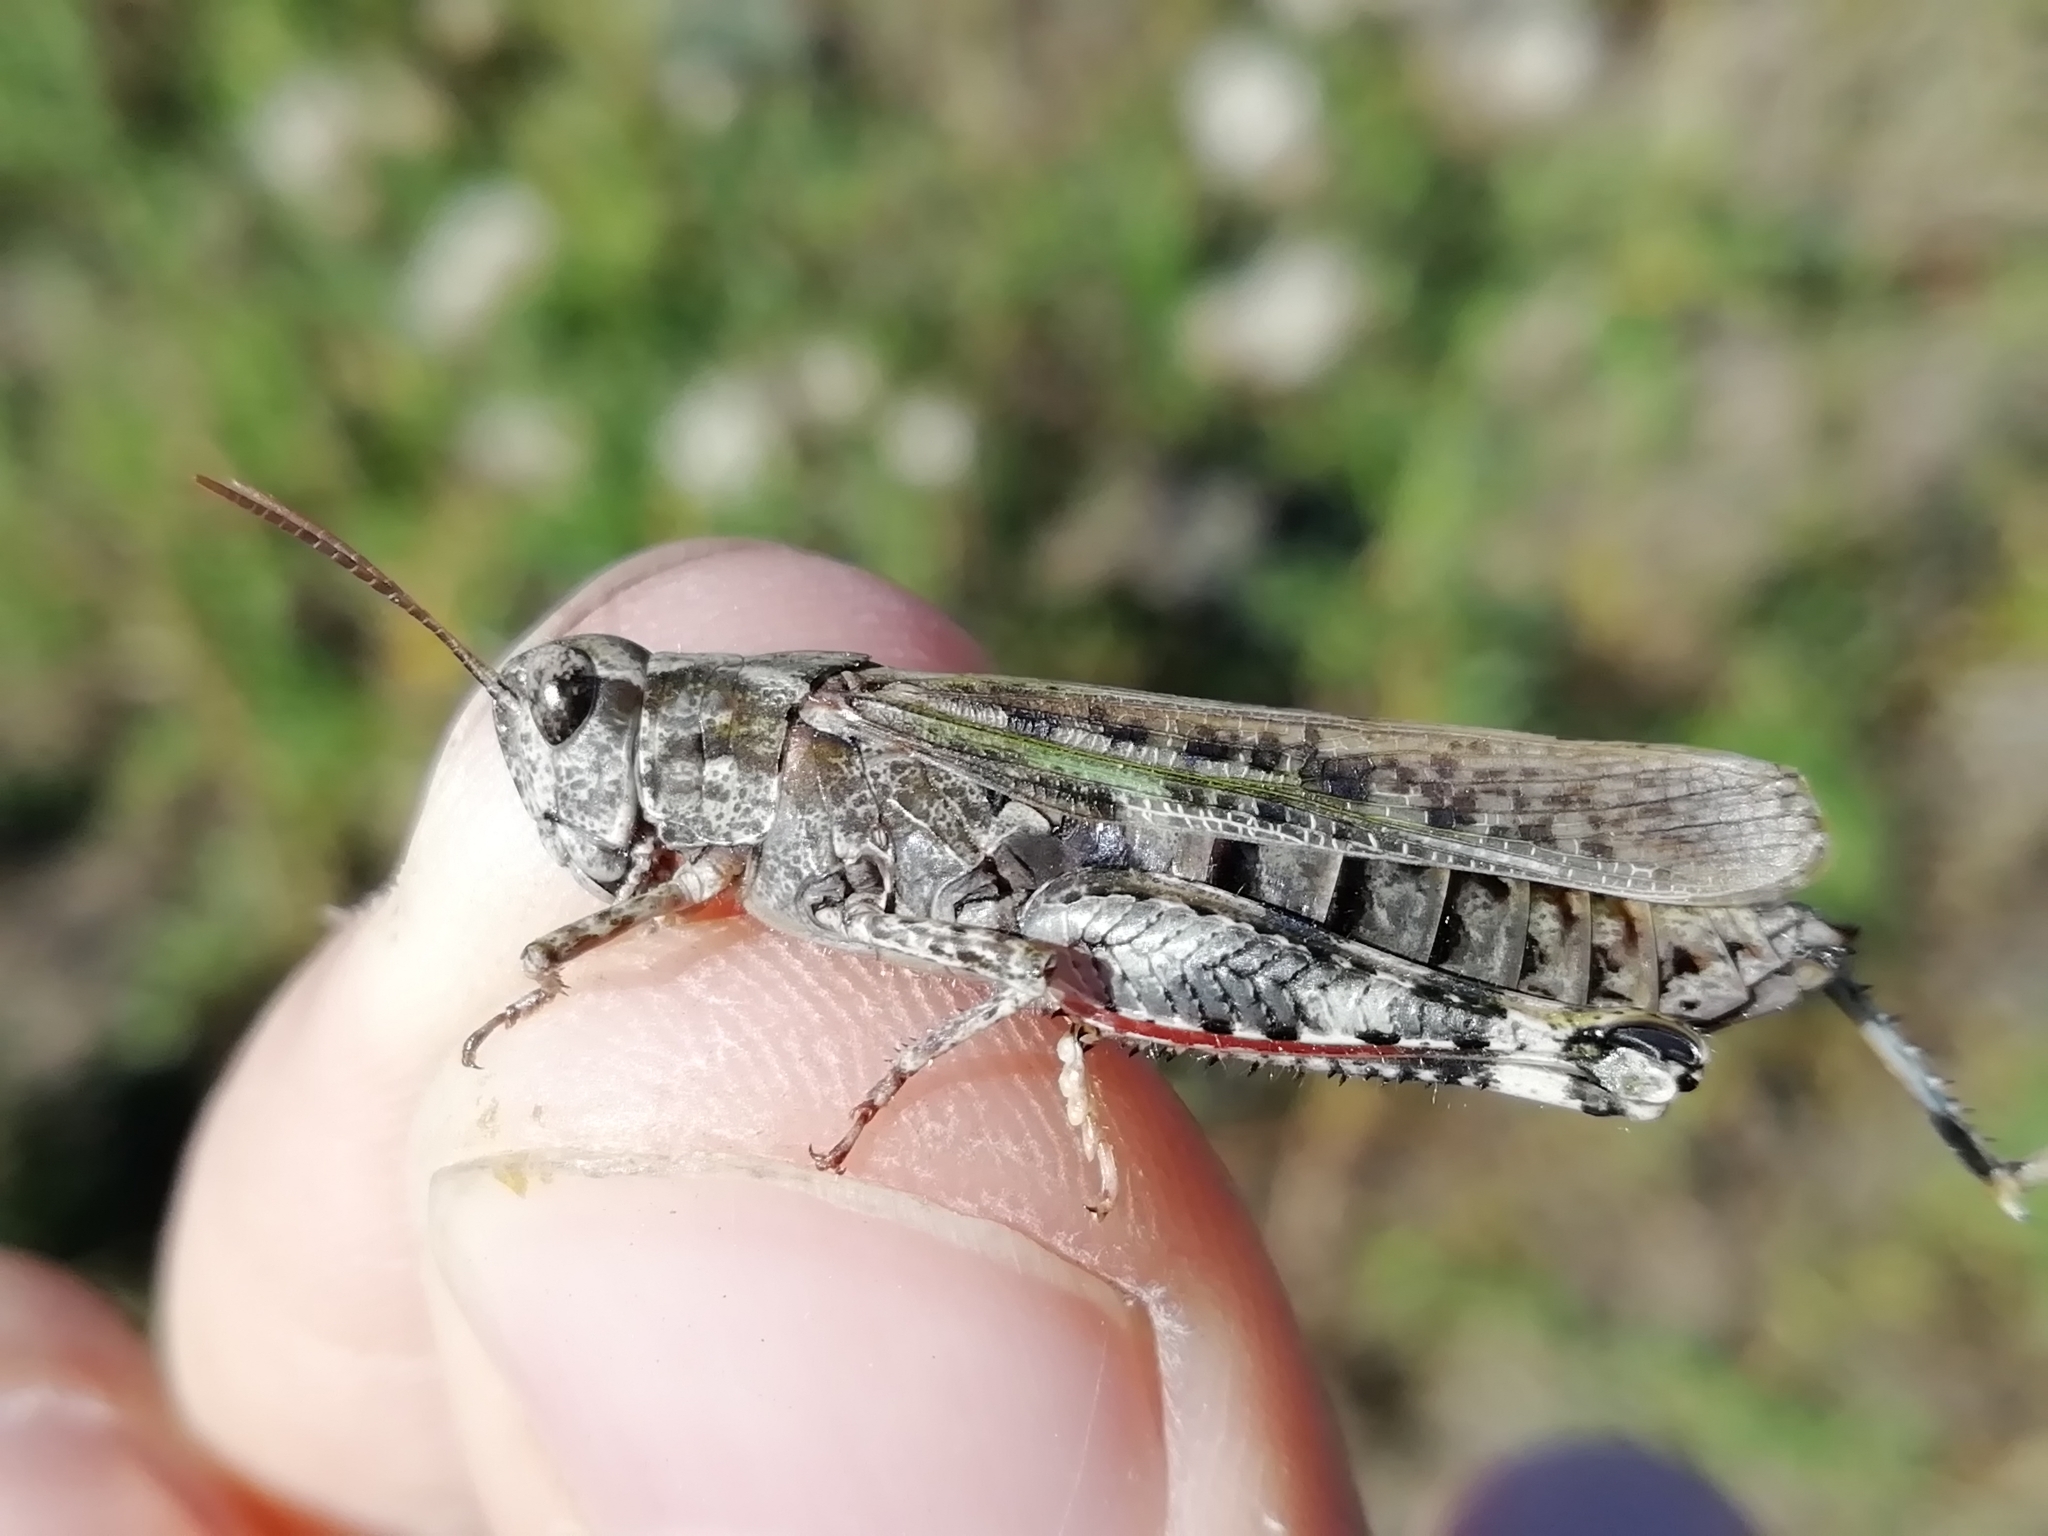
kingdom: Animalia
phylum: Arthropoda
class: Insecta
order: Orthoptera
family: Acrididae
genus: Epacromius
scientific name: Epacromius pulverulentus
